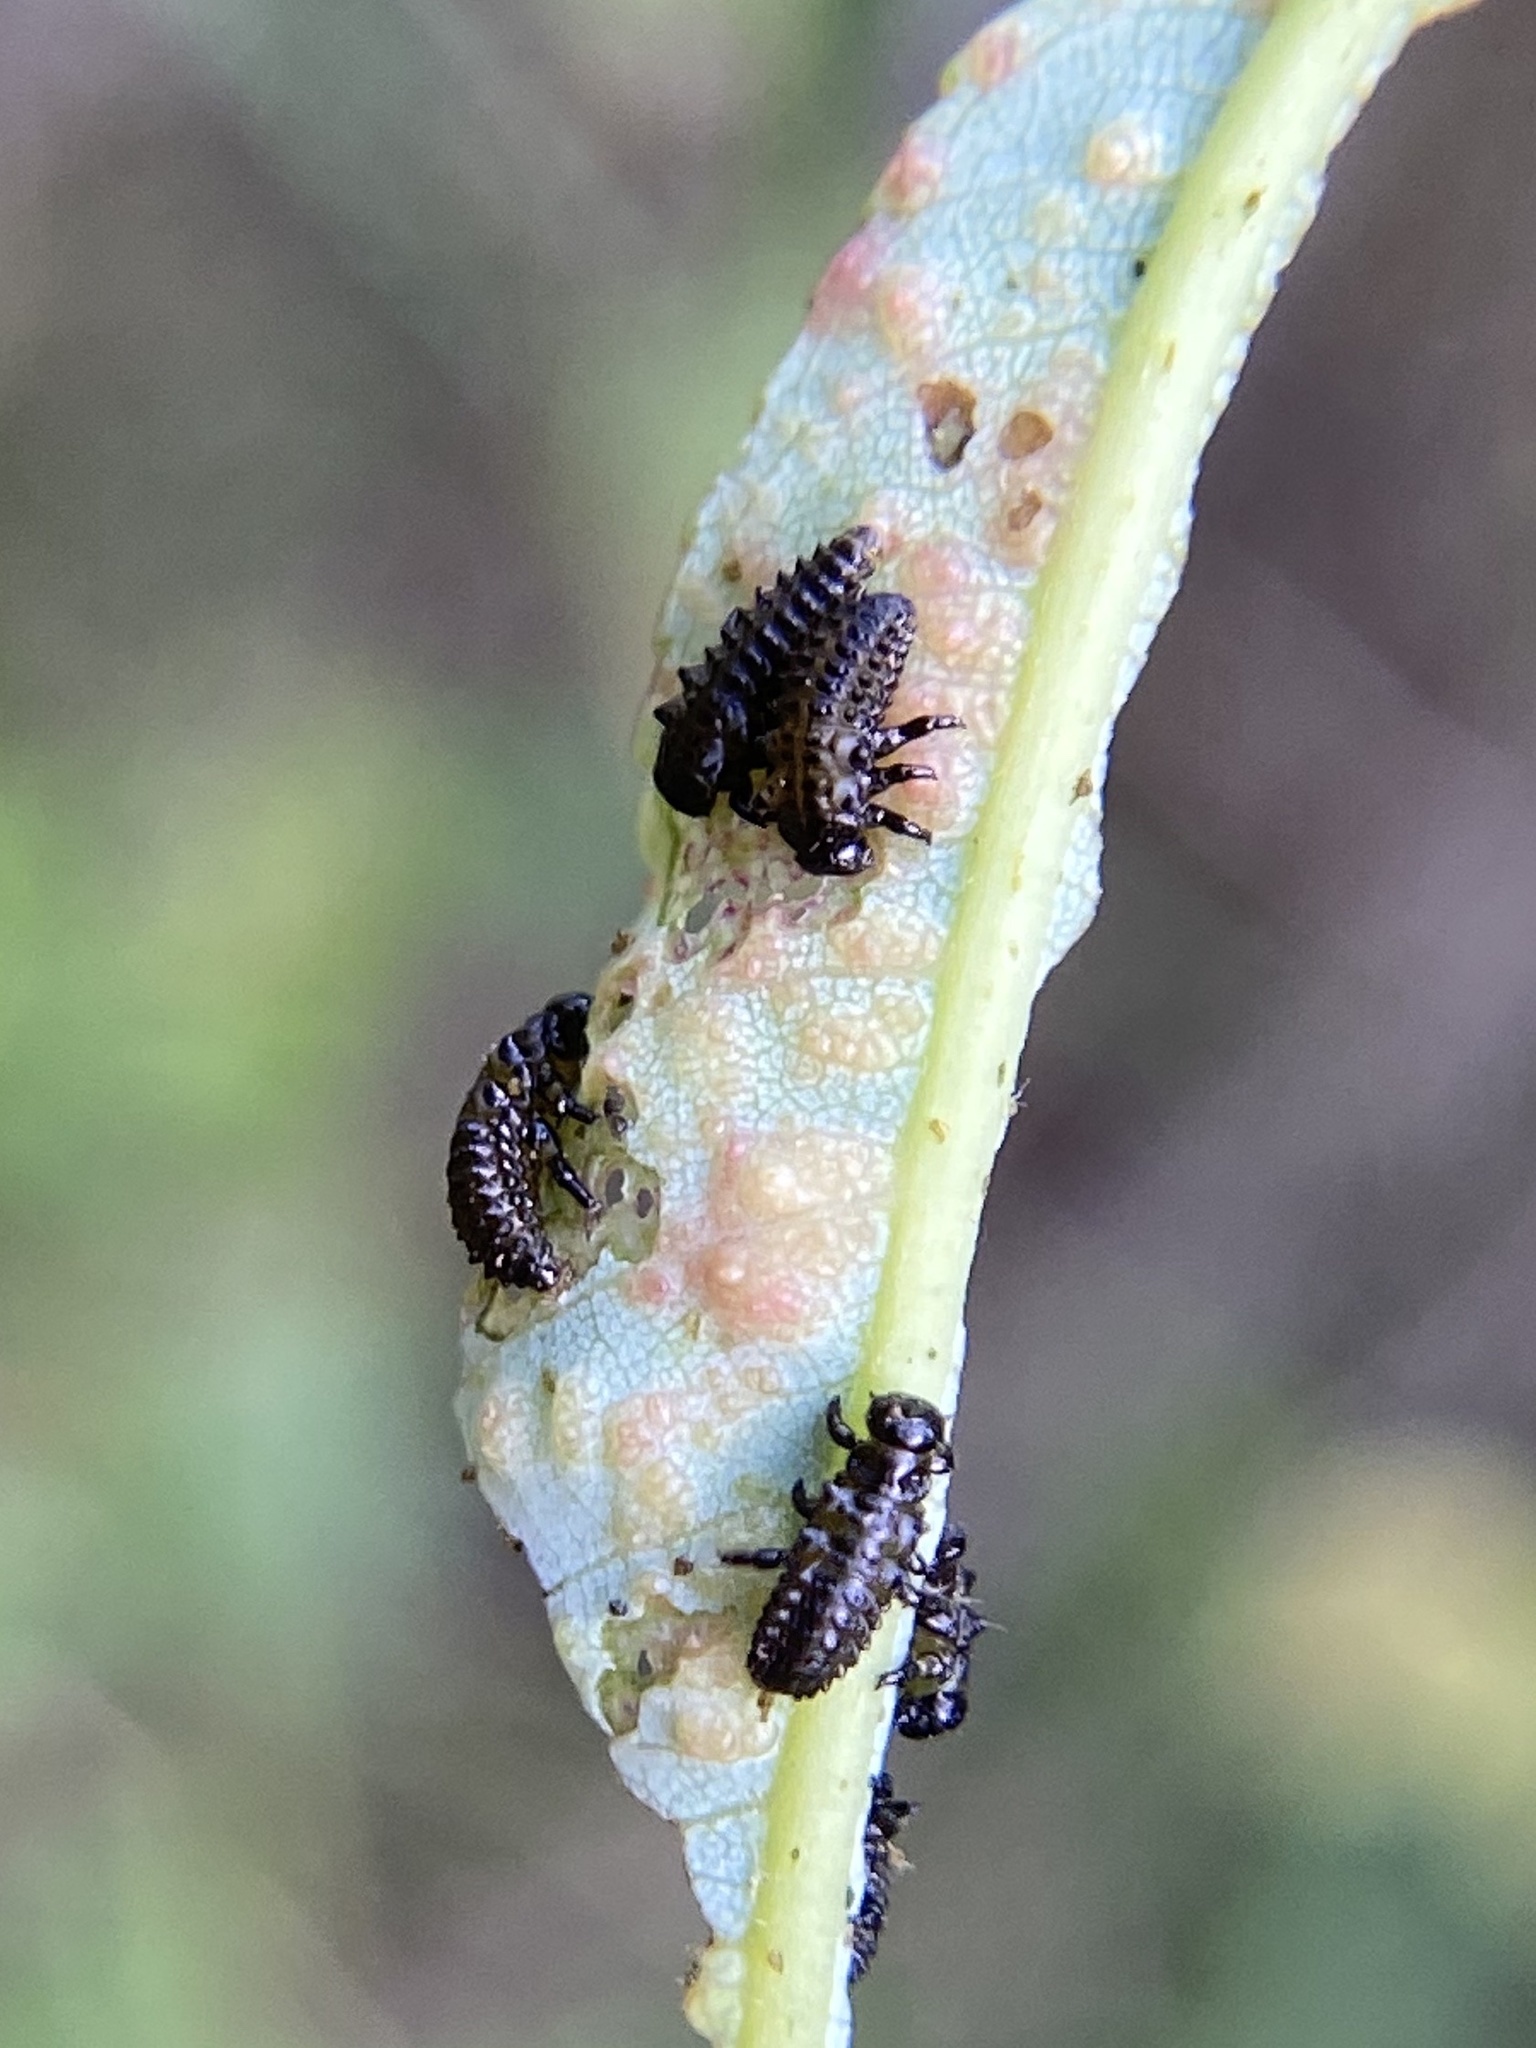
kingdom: Animalia
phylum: Arthropoda
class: Insecta
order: Coleoptera
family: Chrysomelidae
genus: Aethiopocassis
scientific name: Aethiopocassis scripta
